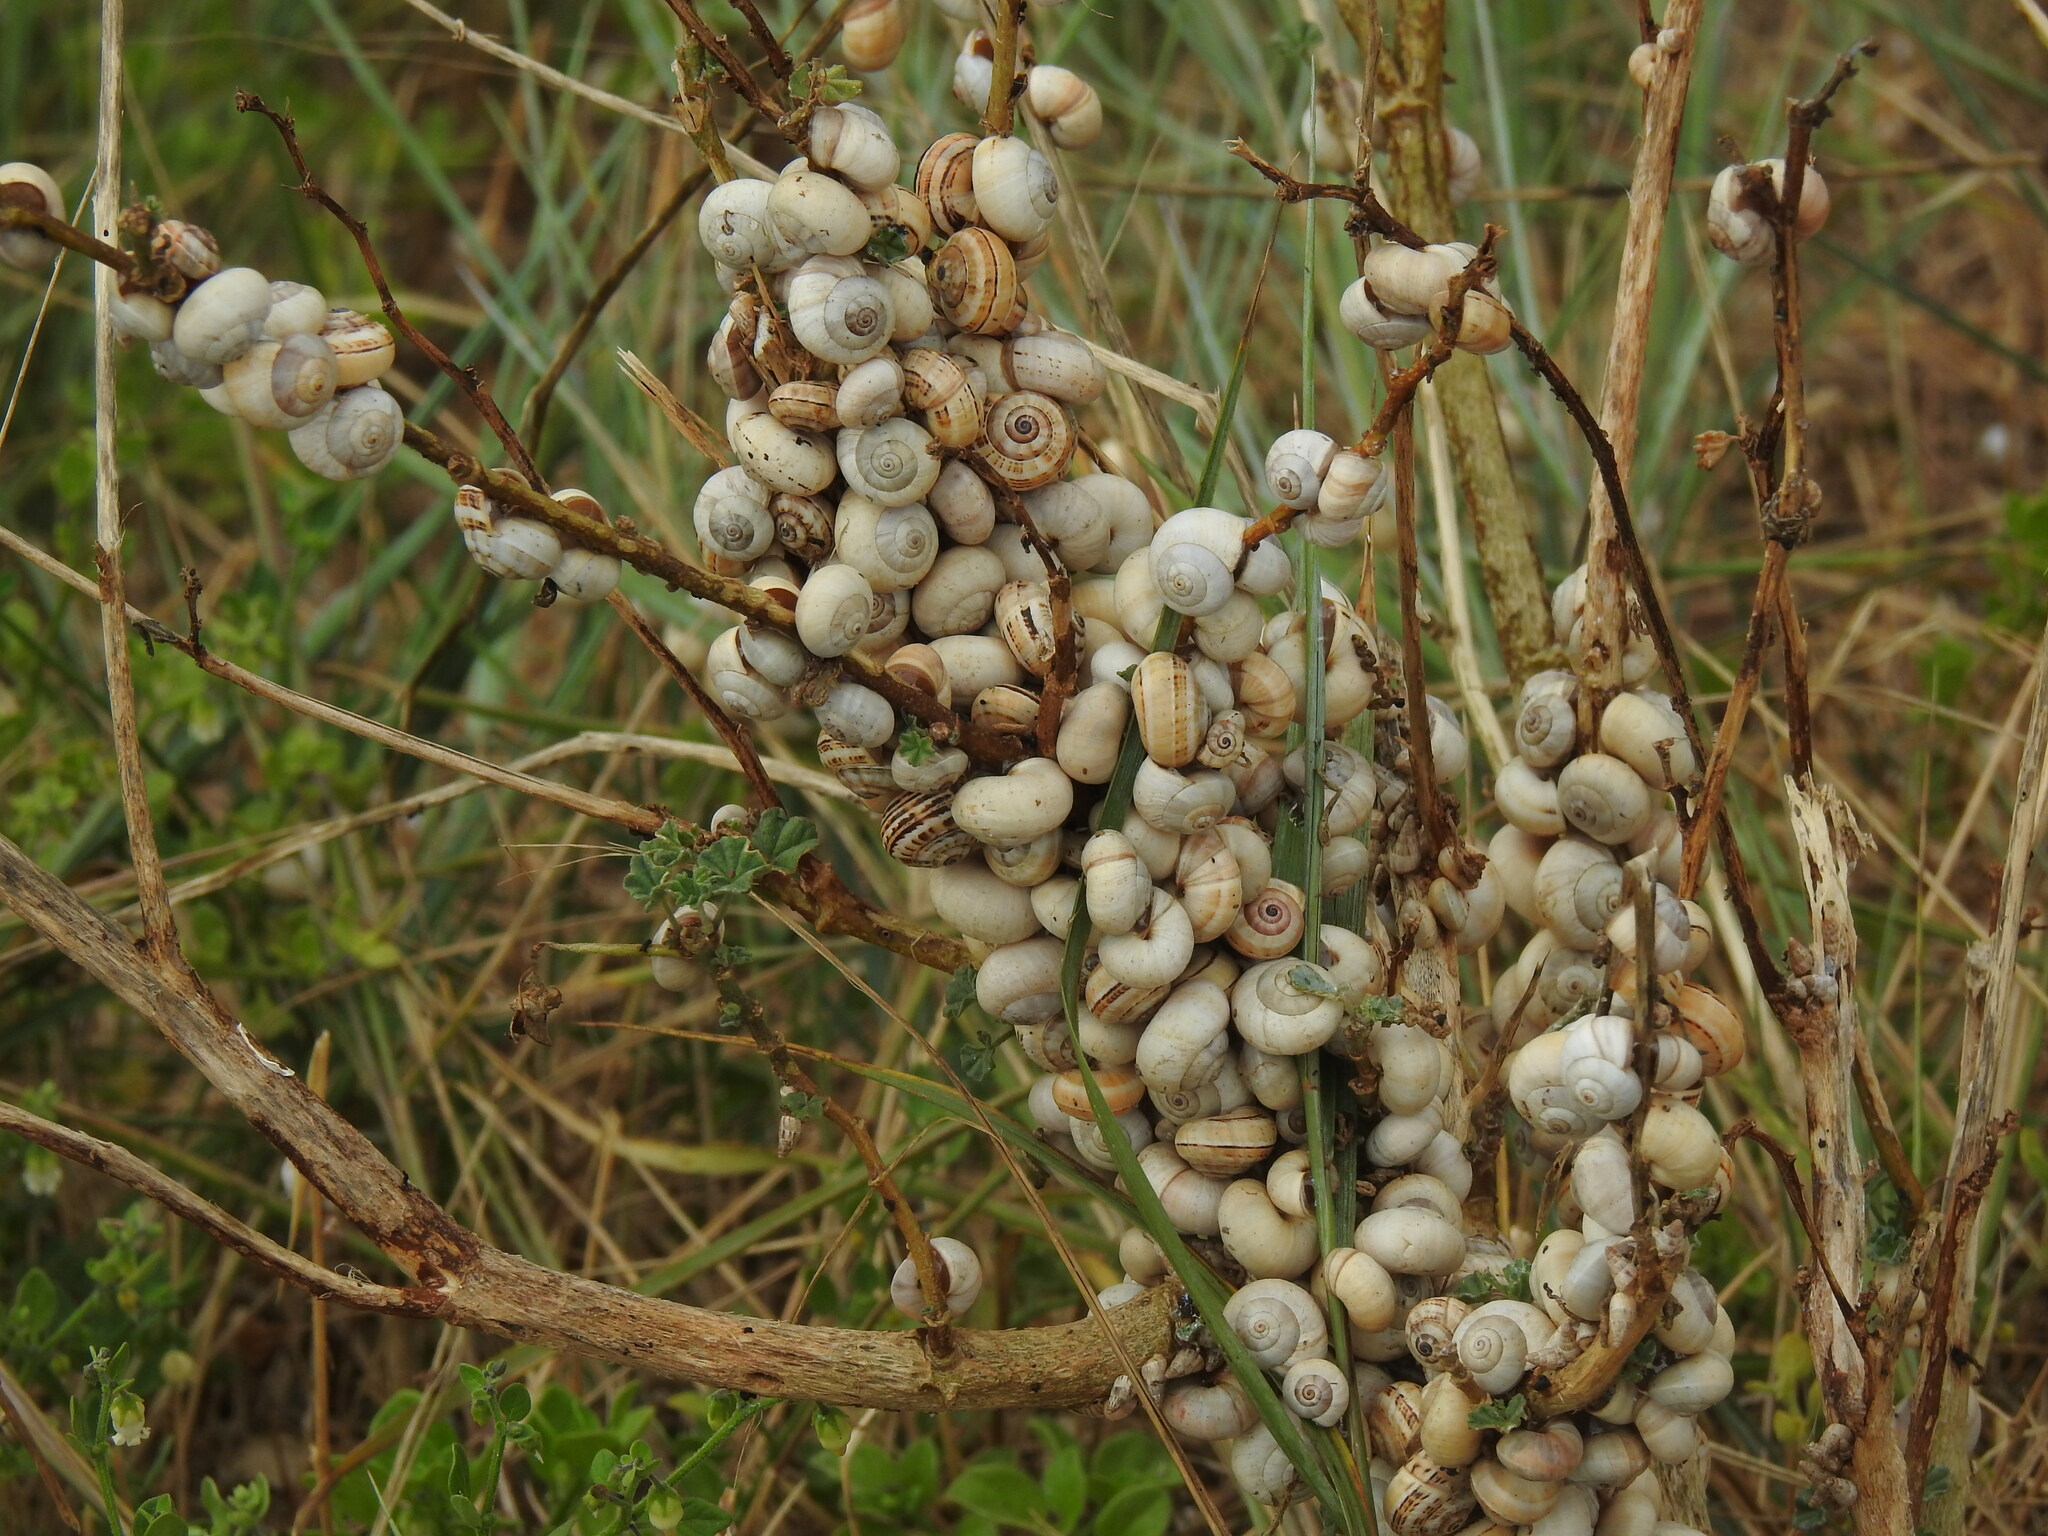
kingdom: Animalia
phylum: Mollusca
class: Gastropoda
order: Stylommatophora
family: Helicidae
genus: Theba
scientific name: Theba pisana
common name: White snail
